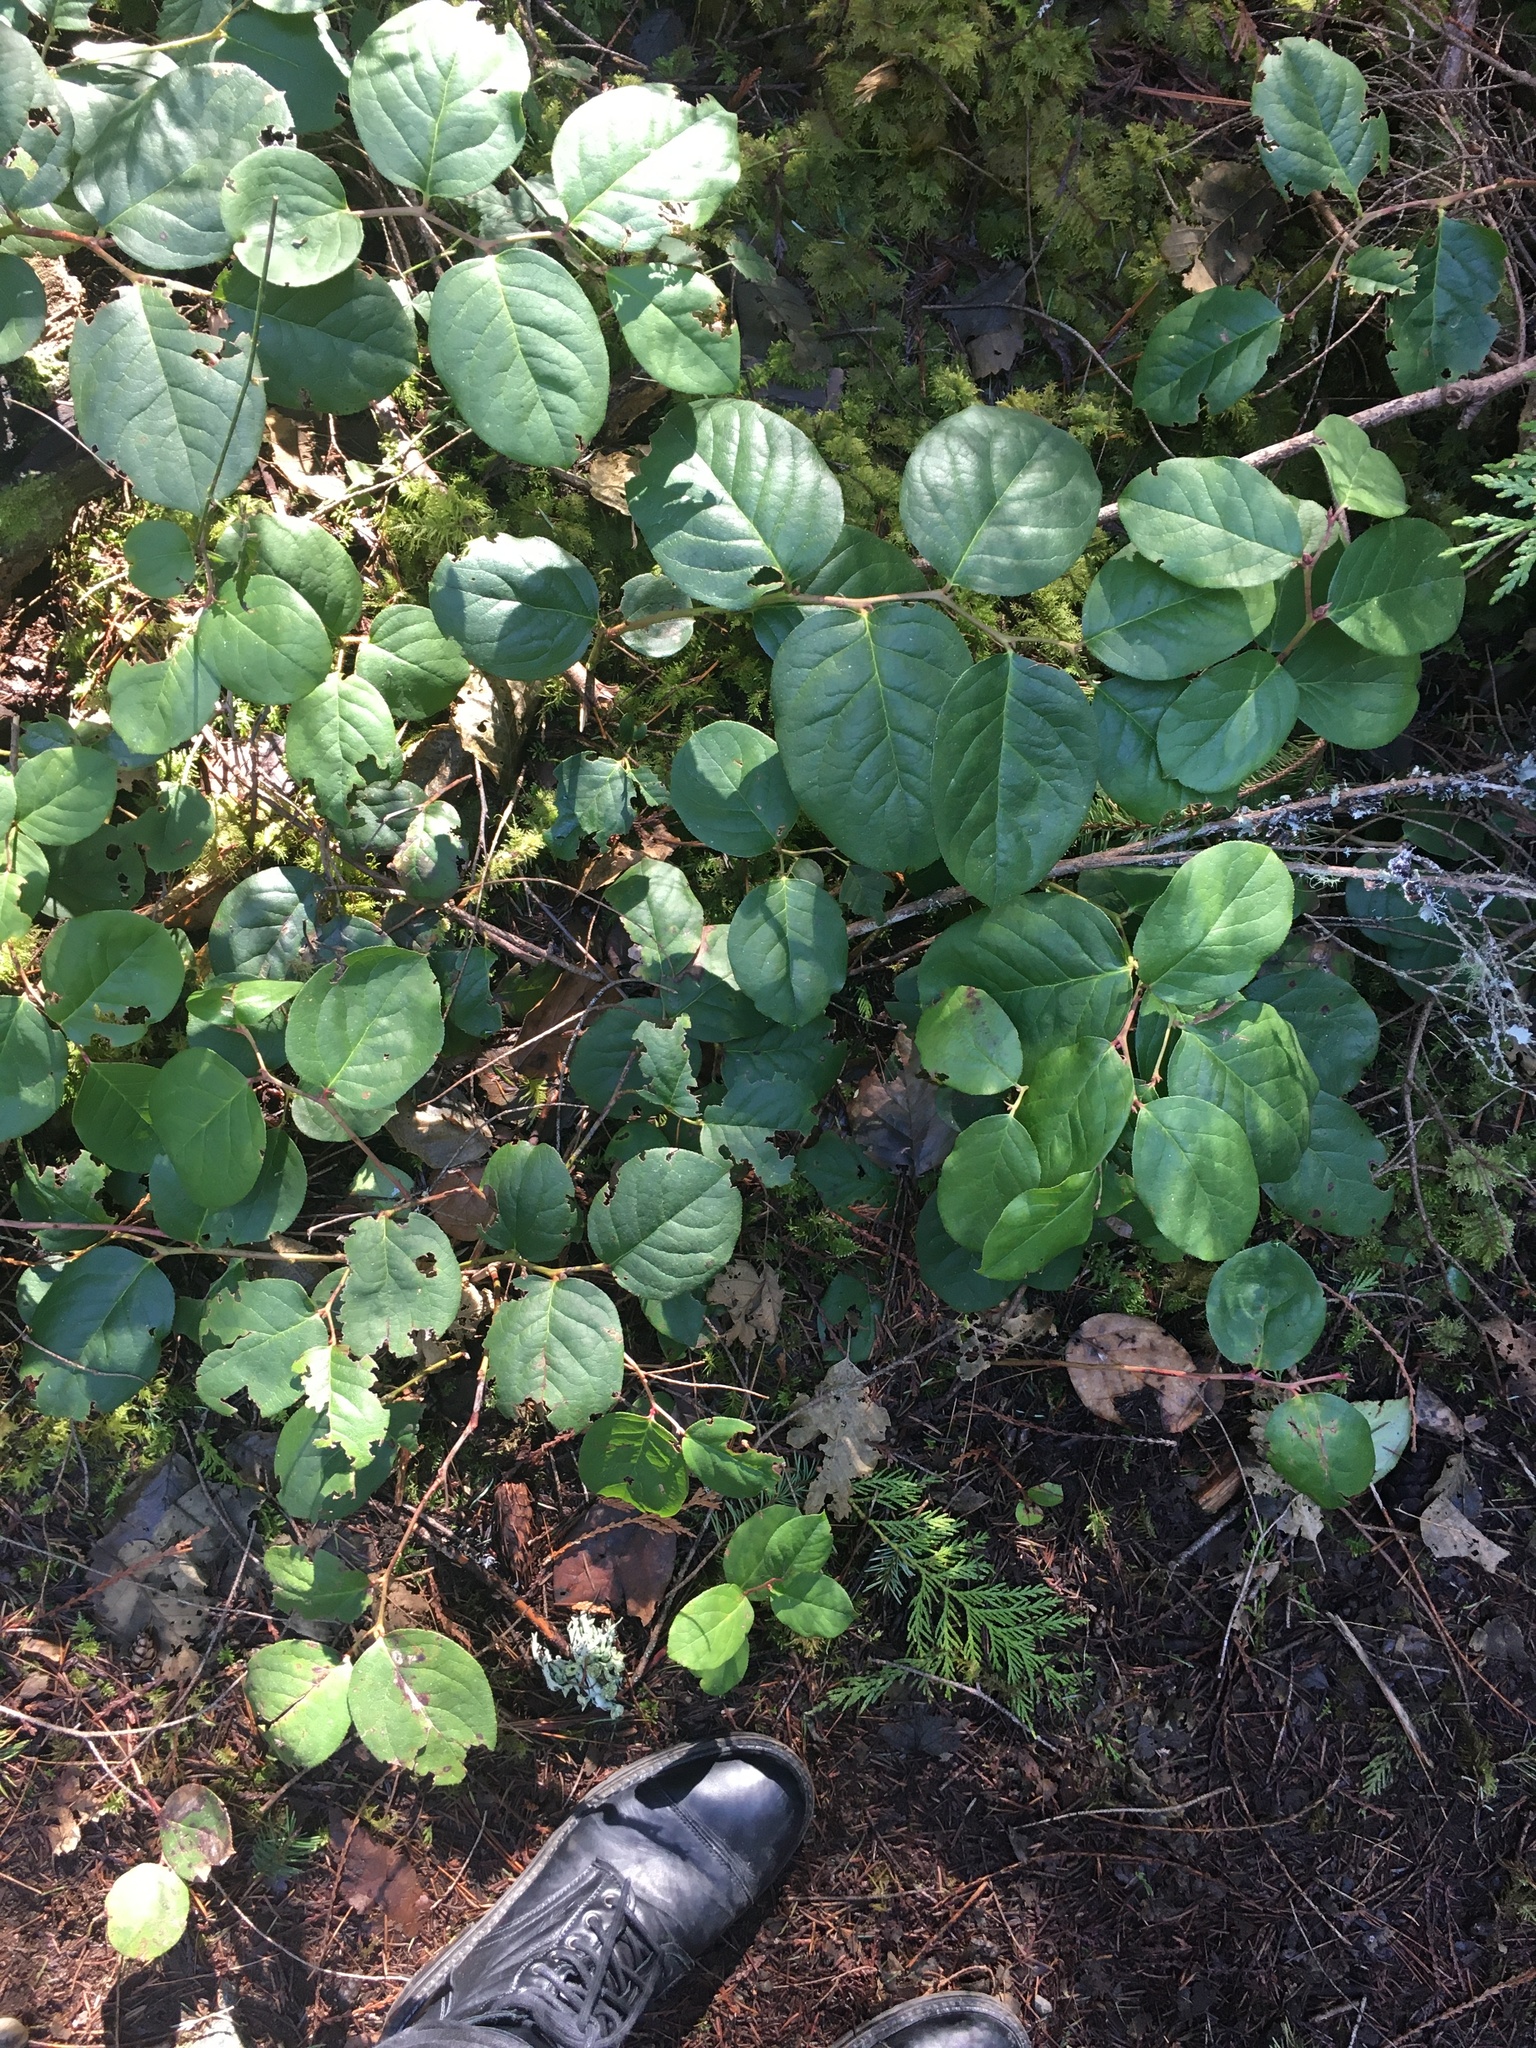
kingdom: Plantae
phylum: Tracheophyta
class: Magnoliopsida
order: Ericales
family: Ericaceae
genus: Gaultheria
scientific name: Gaultheria shallon
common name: Shallon
